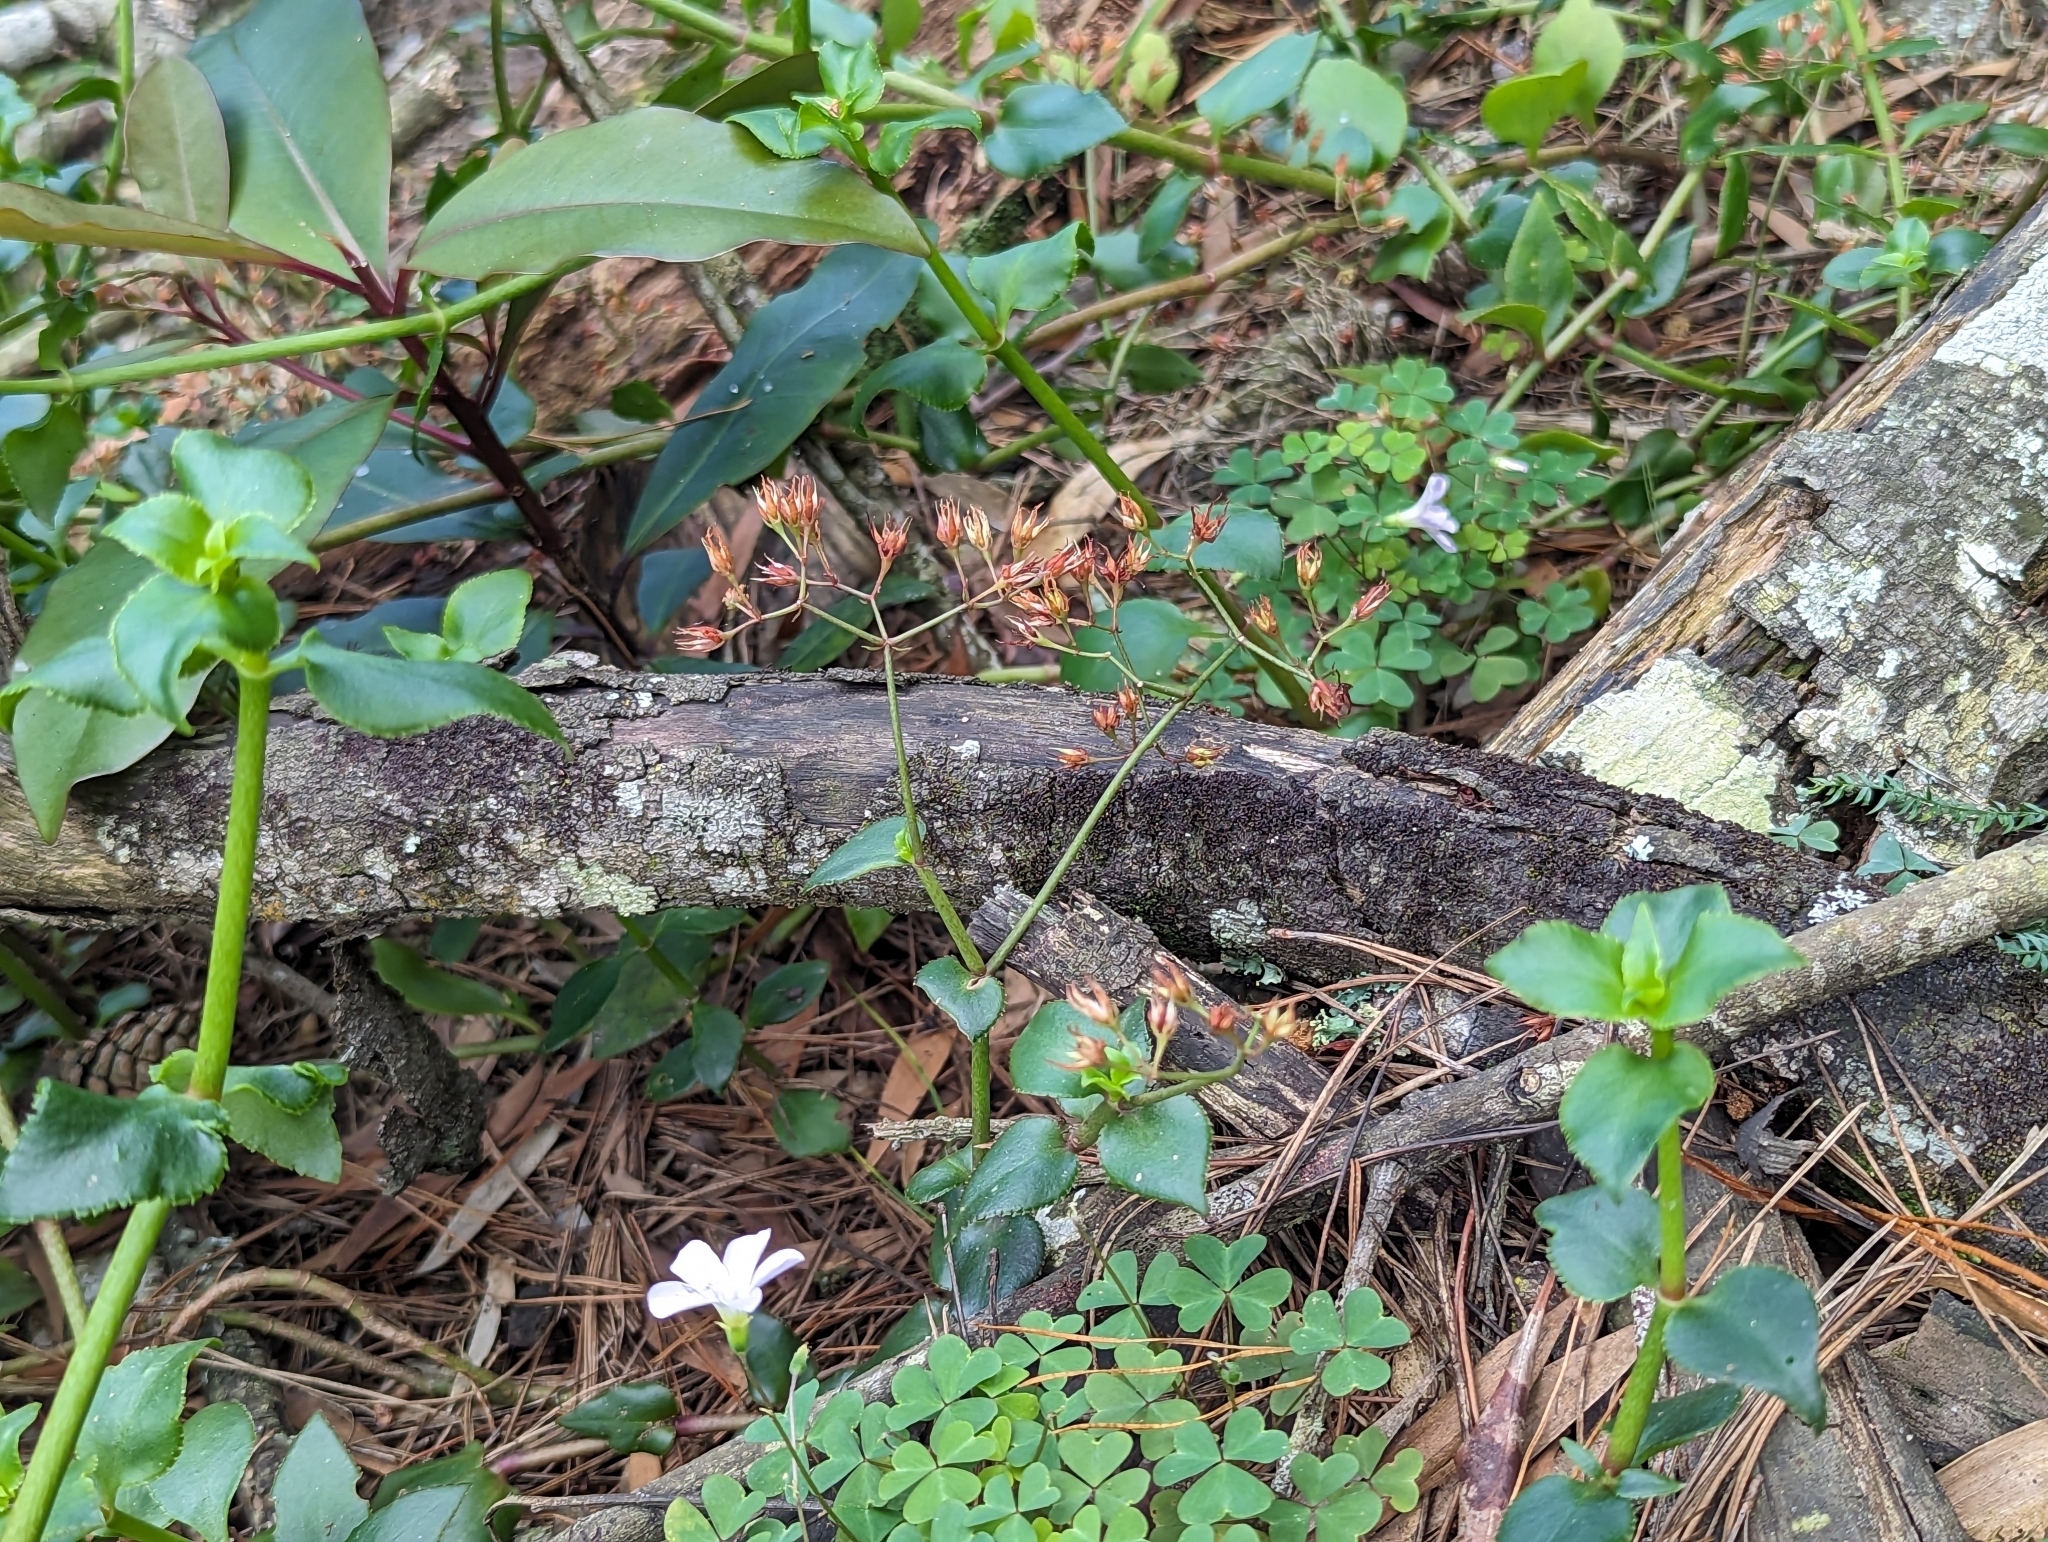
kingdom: Plantae
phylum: Tracheophyta
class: Magnoliopsida
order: Saxifragales
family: Crassulaceae
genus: Crassula
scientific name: Crassula sarmentosa
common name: Jade-tree
